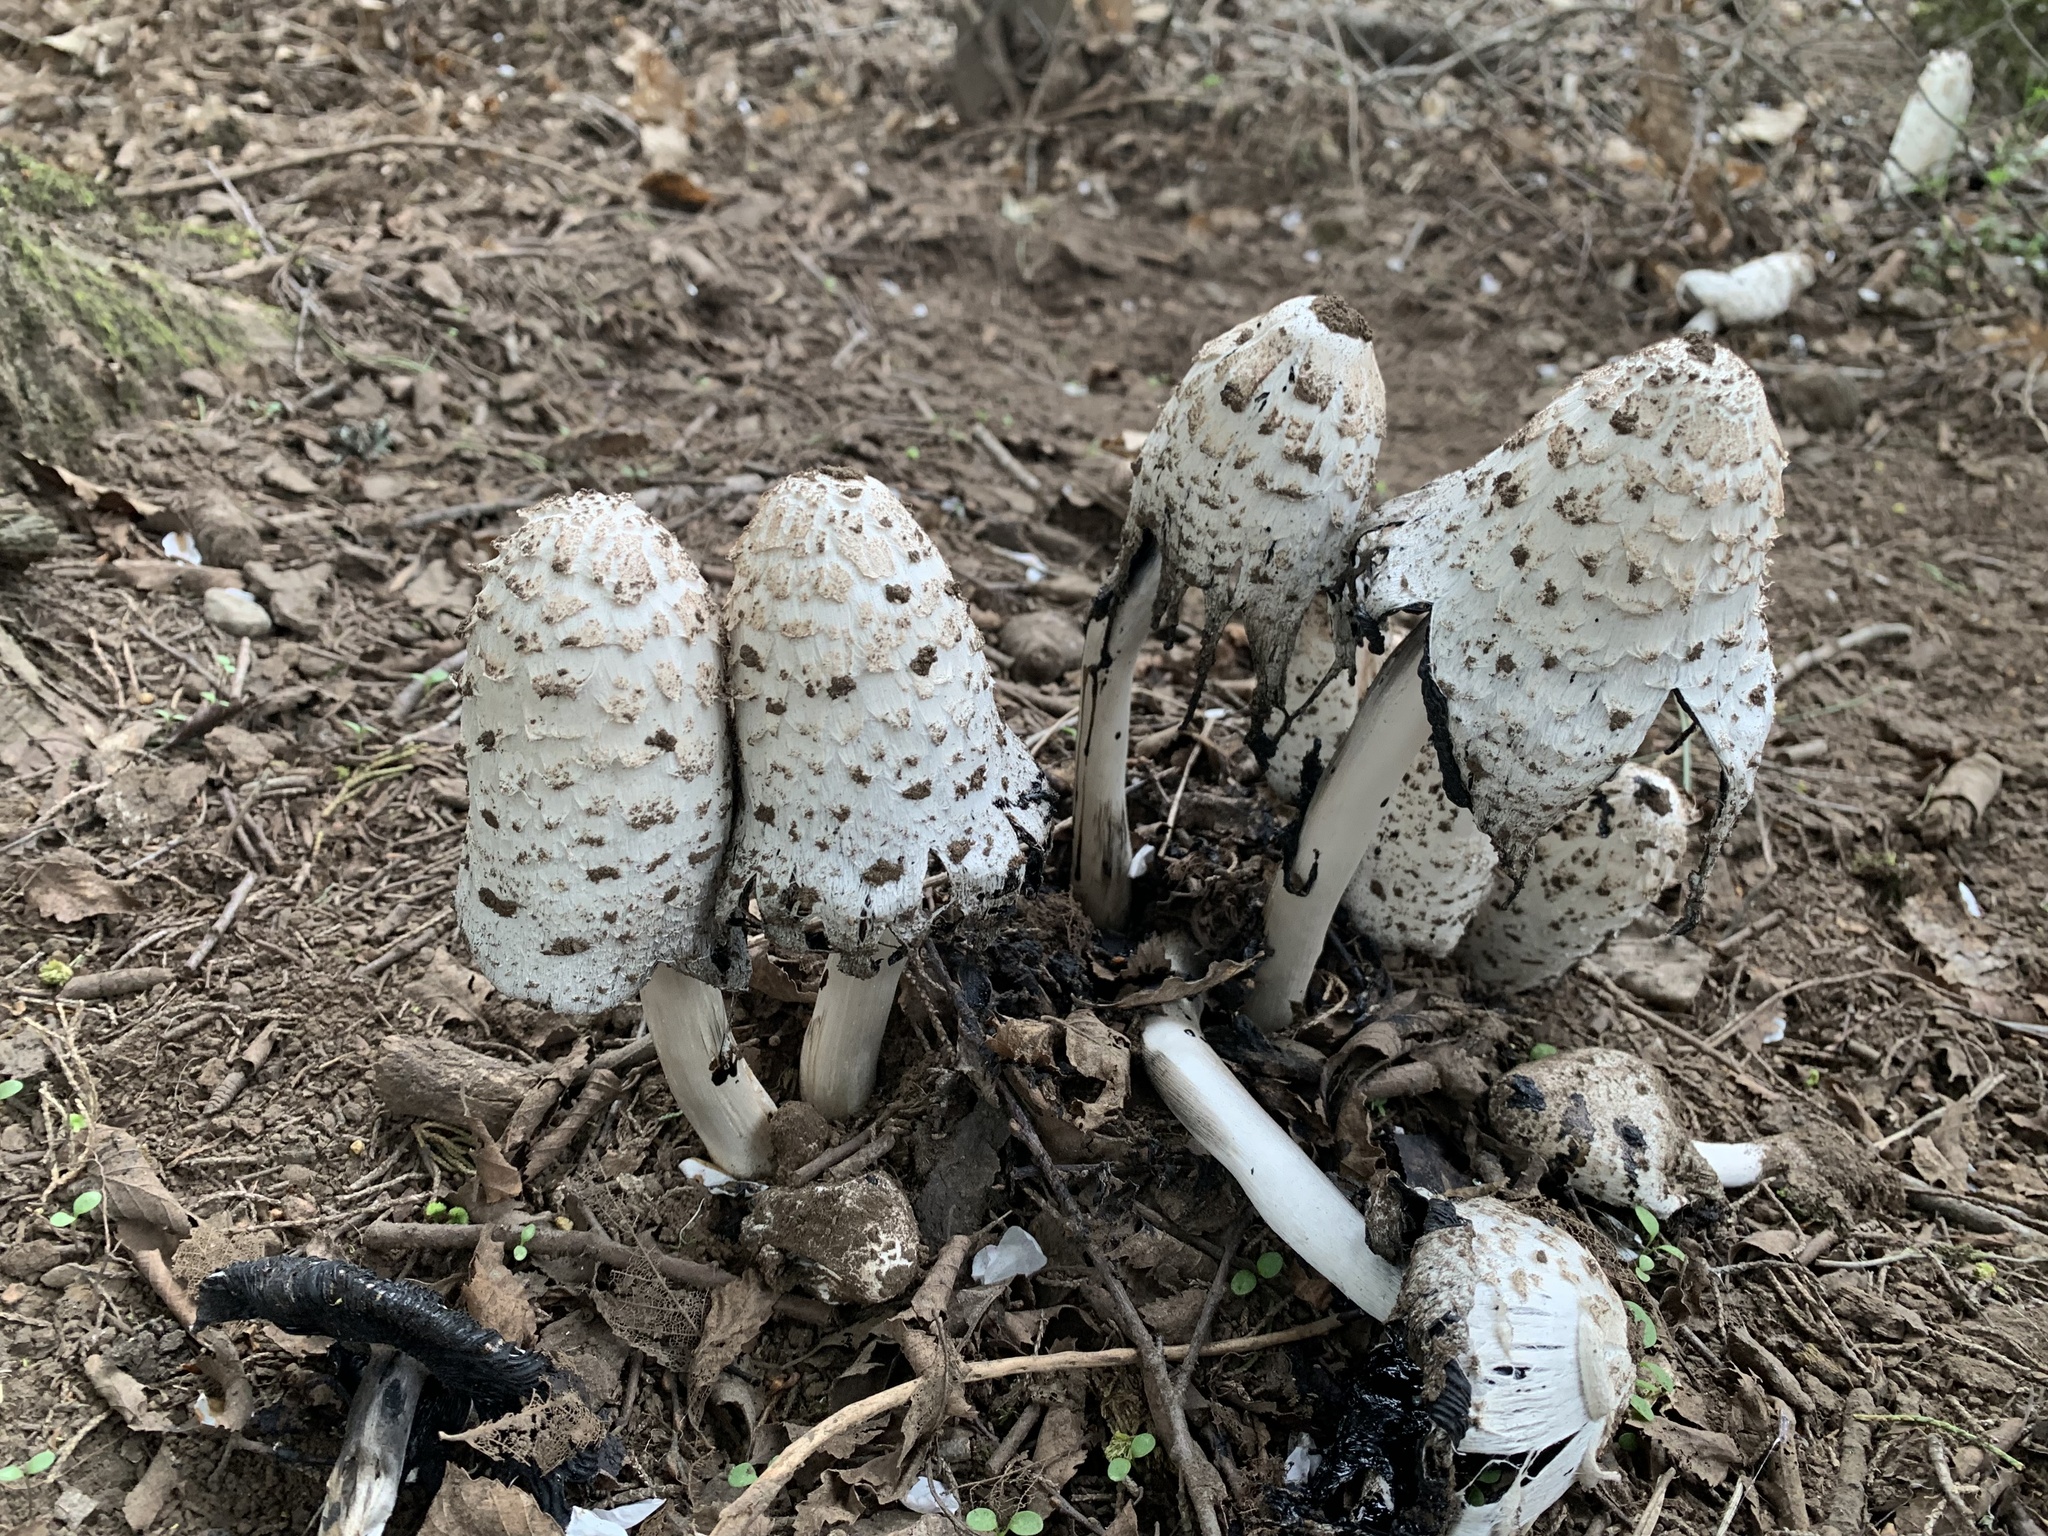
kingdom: Fungi
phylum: Basidiomycota
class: Agaricomycetes
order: Agaricales
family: Agaricaceae
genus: Coprinus
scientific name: Coprinus comatus
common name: Lawyer's wig
